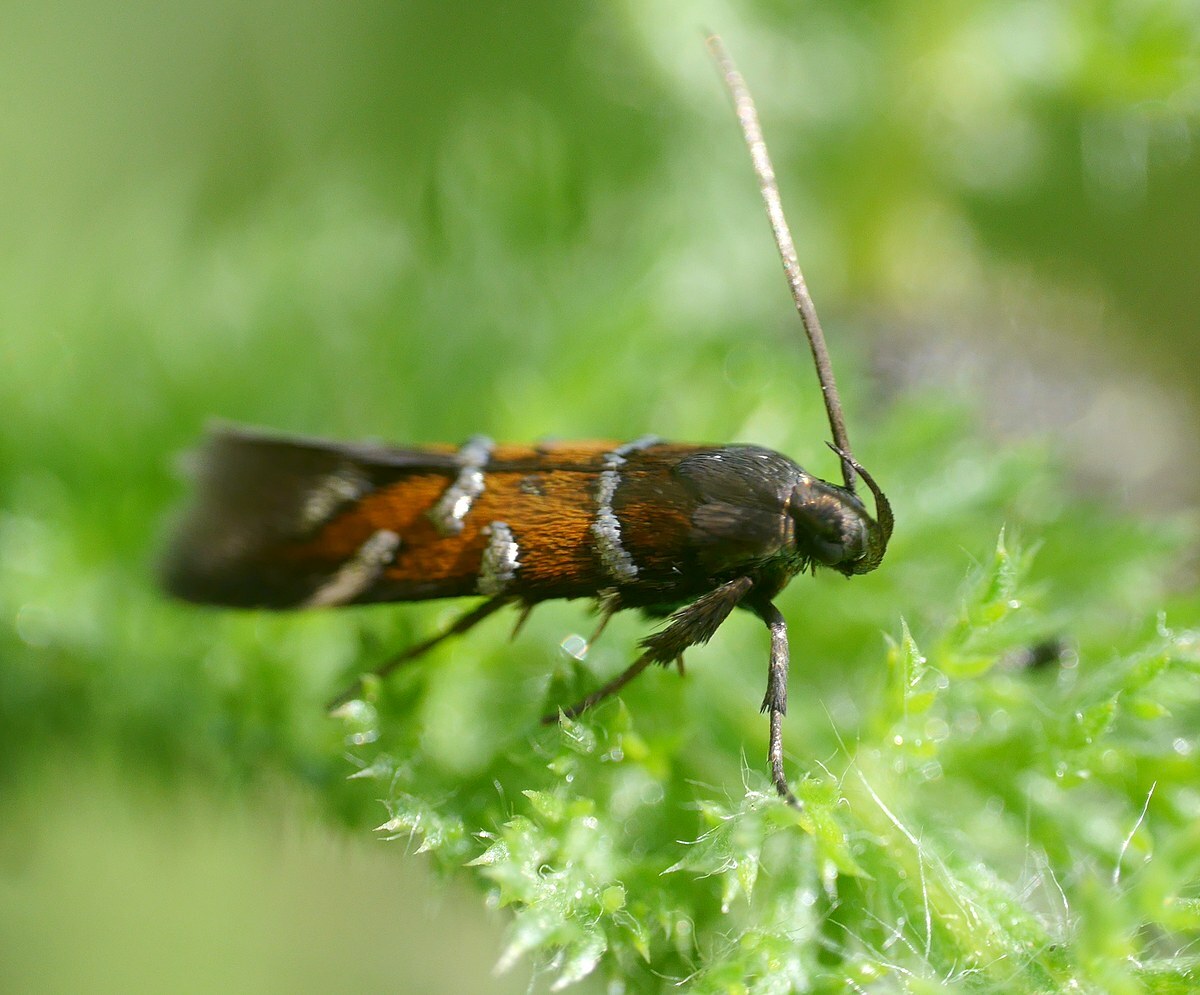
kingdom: Animalia
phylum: Arthropoda
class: Insecta
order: Lepidoptera
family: Cosmopterigidae
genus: Pancalia
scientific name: Pancalia nodosella
